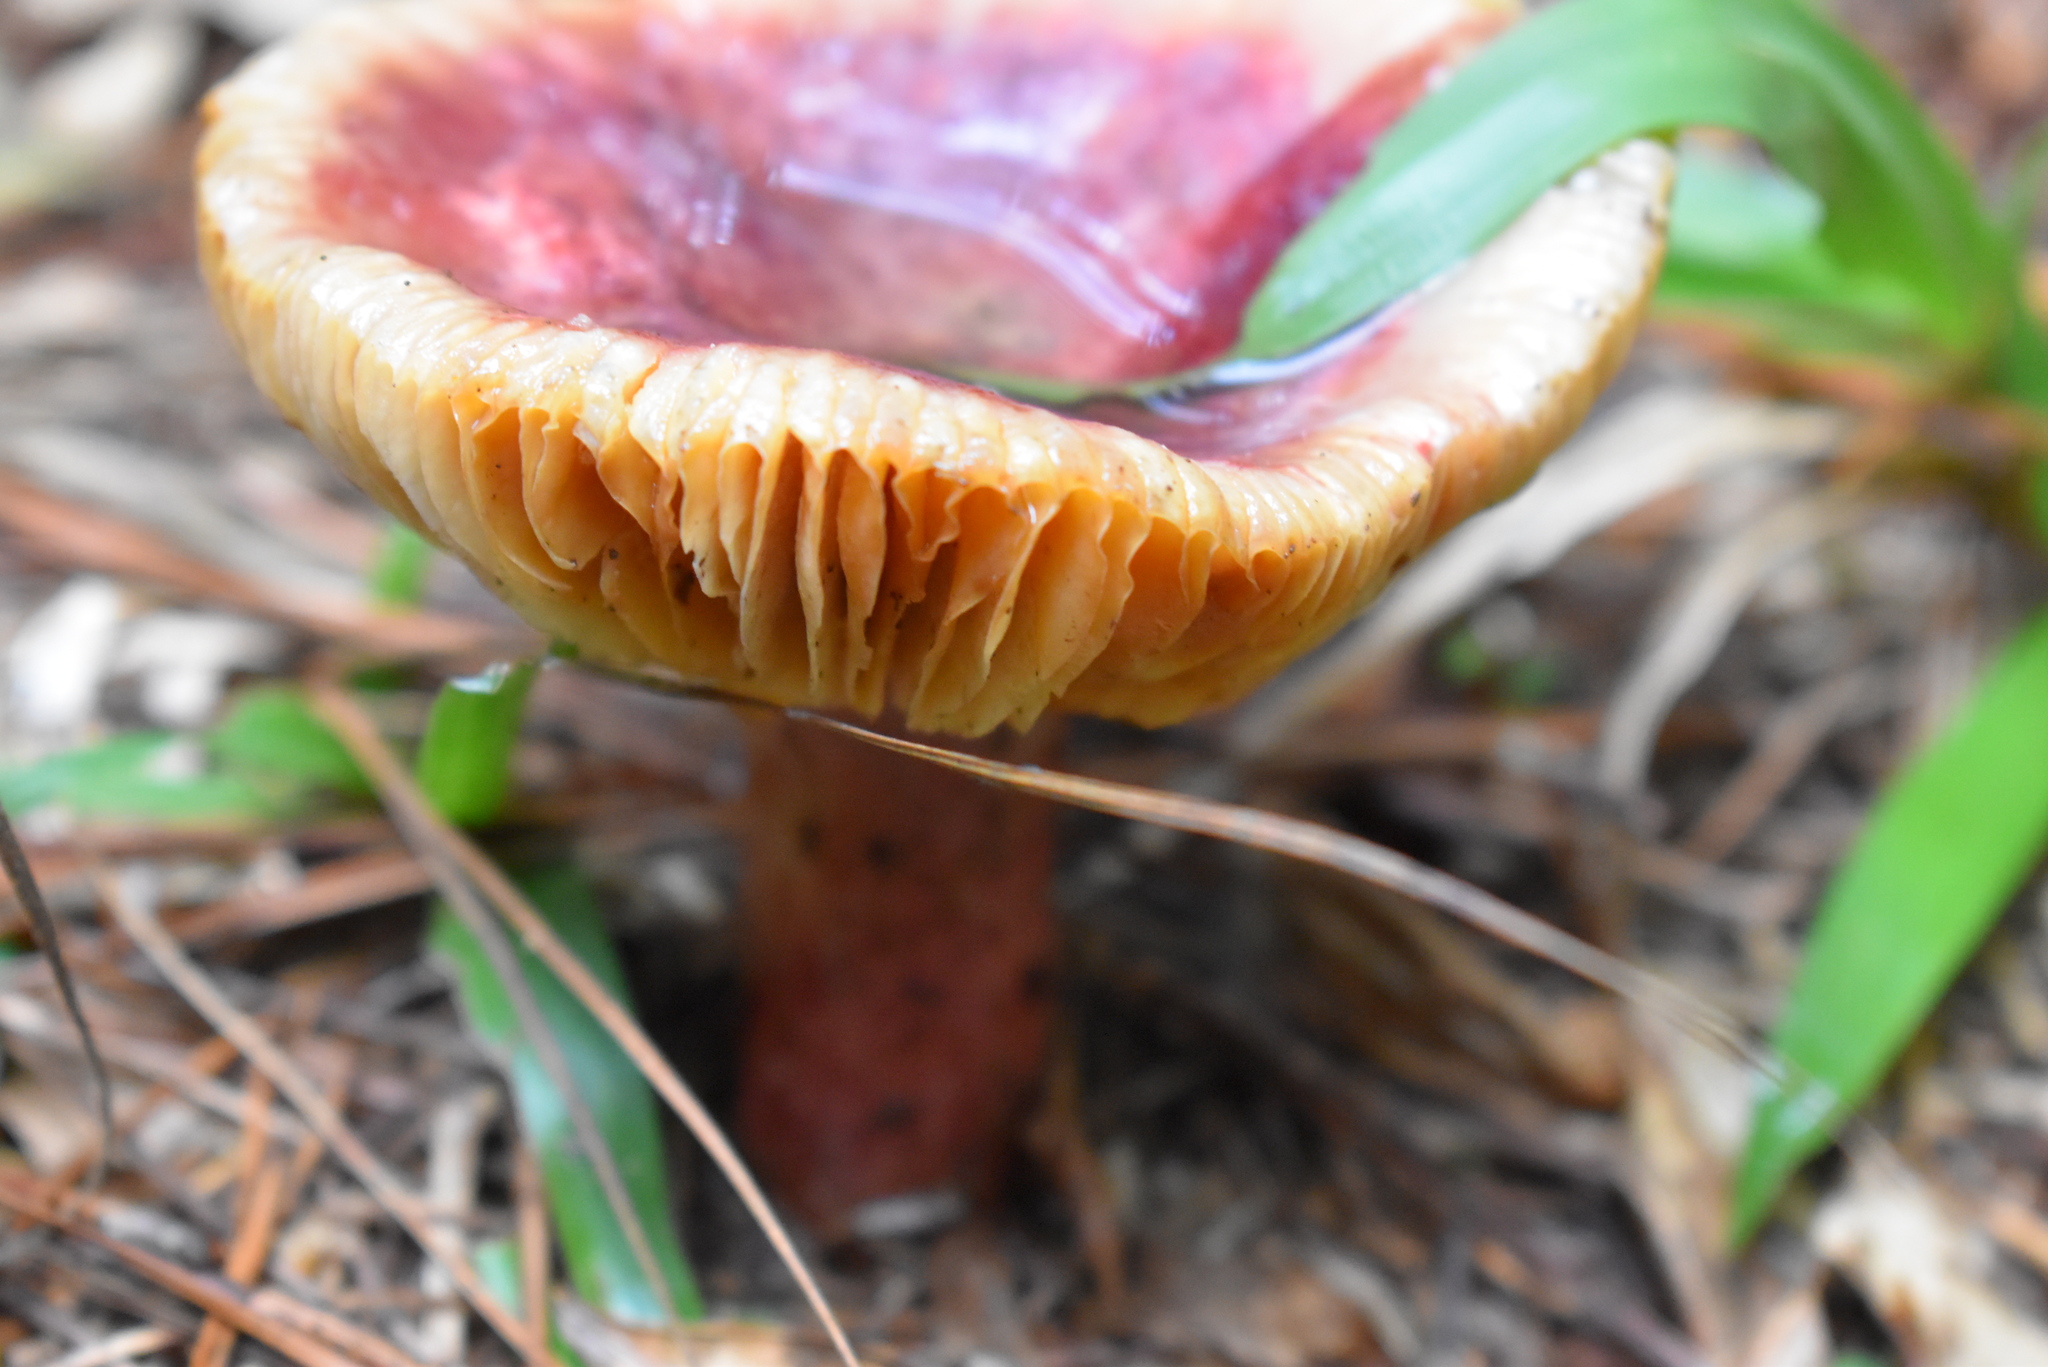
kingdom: Fungi
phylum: Basidiomycota
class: Agaricomycetes
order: Russulales
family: Russulaceae
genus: Russula
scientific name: Russula xerampelina
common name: Crab brittlegill
